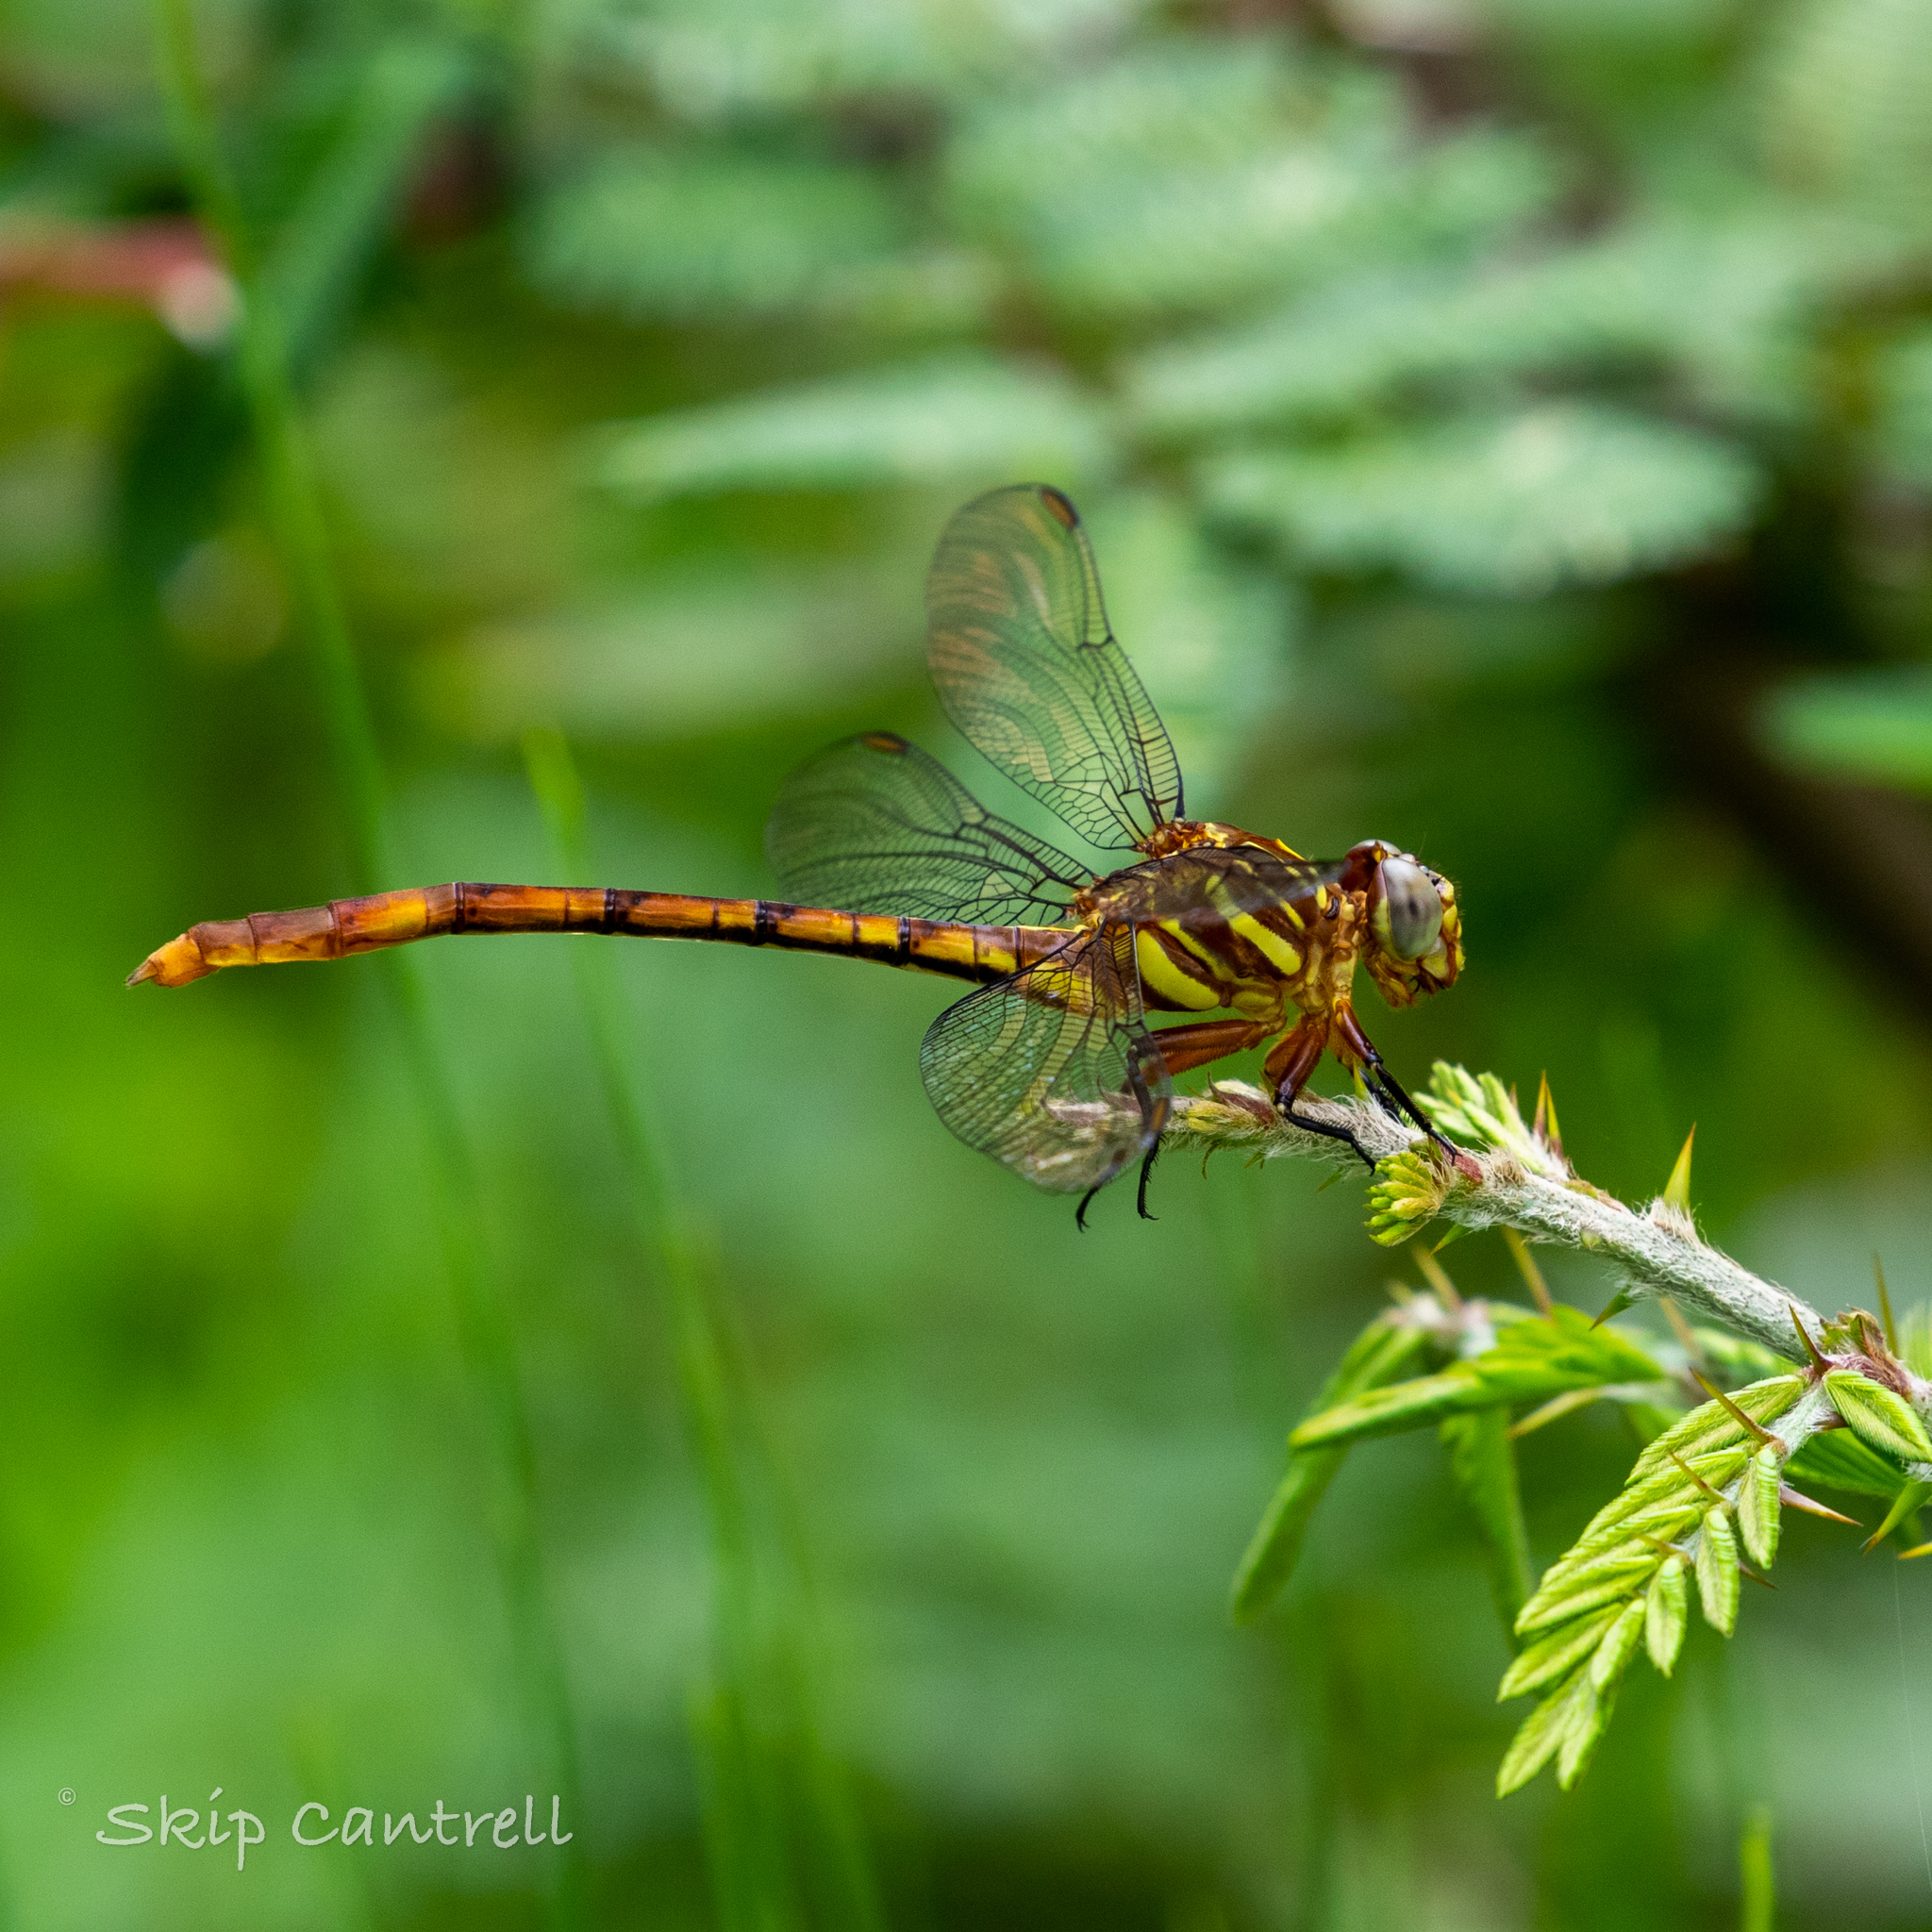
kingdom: Animalia
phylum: Arthropoda
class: Insecta
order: Odonata
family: Gomphidae
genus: Aphylla
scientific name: Aphylla angustifolia
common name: Broad-striped forceptail
